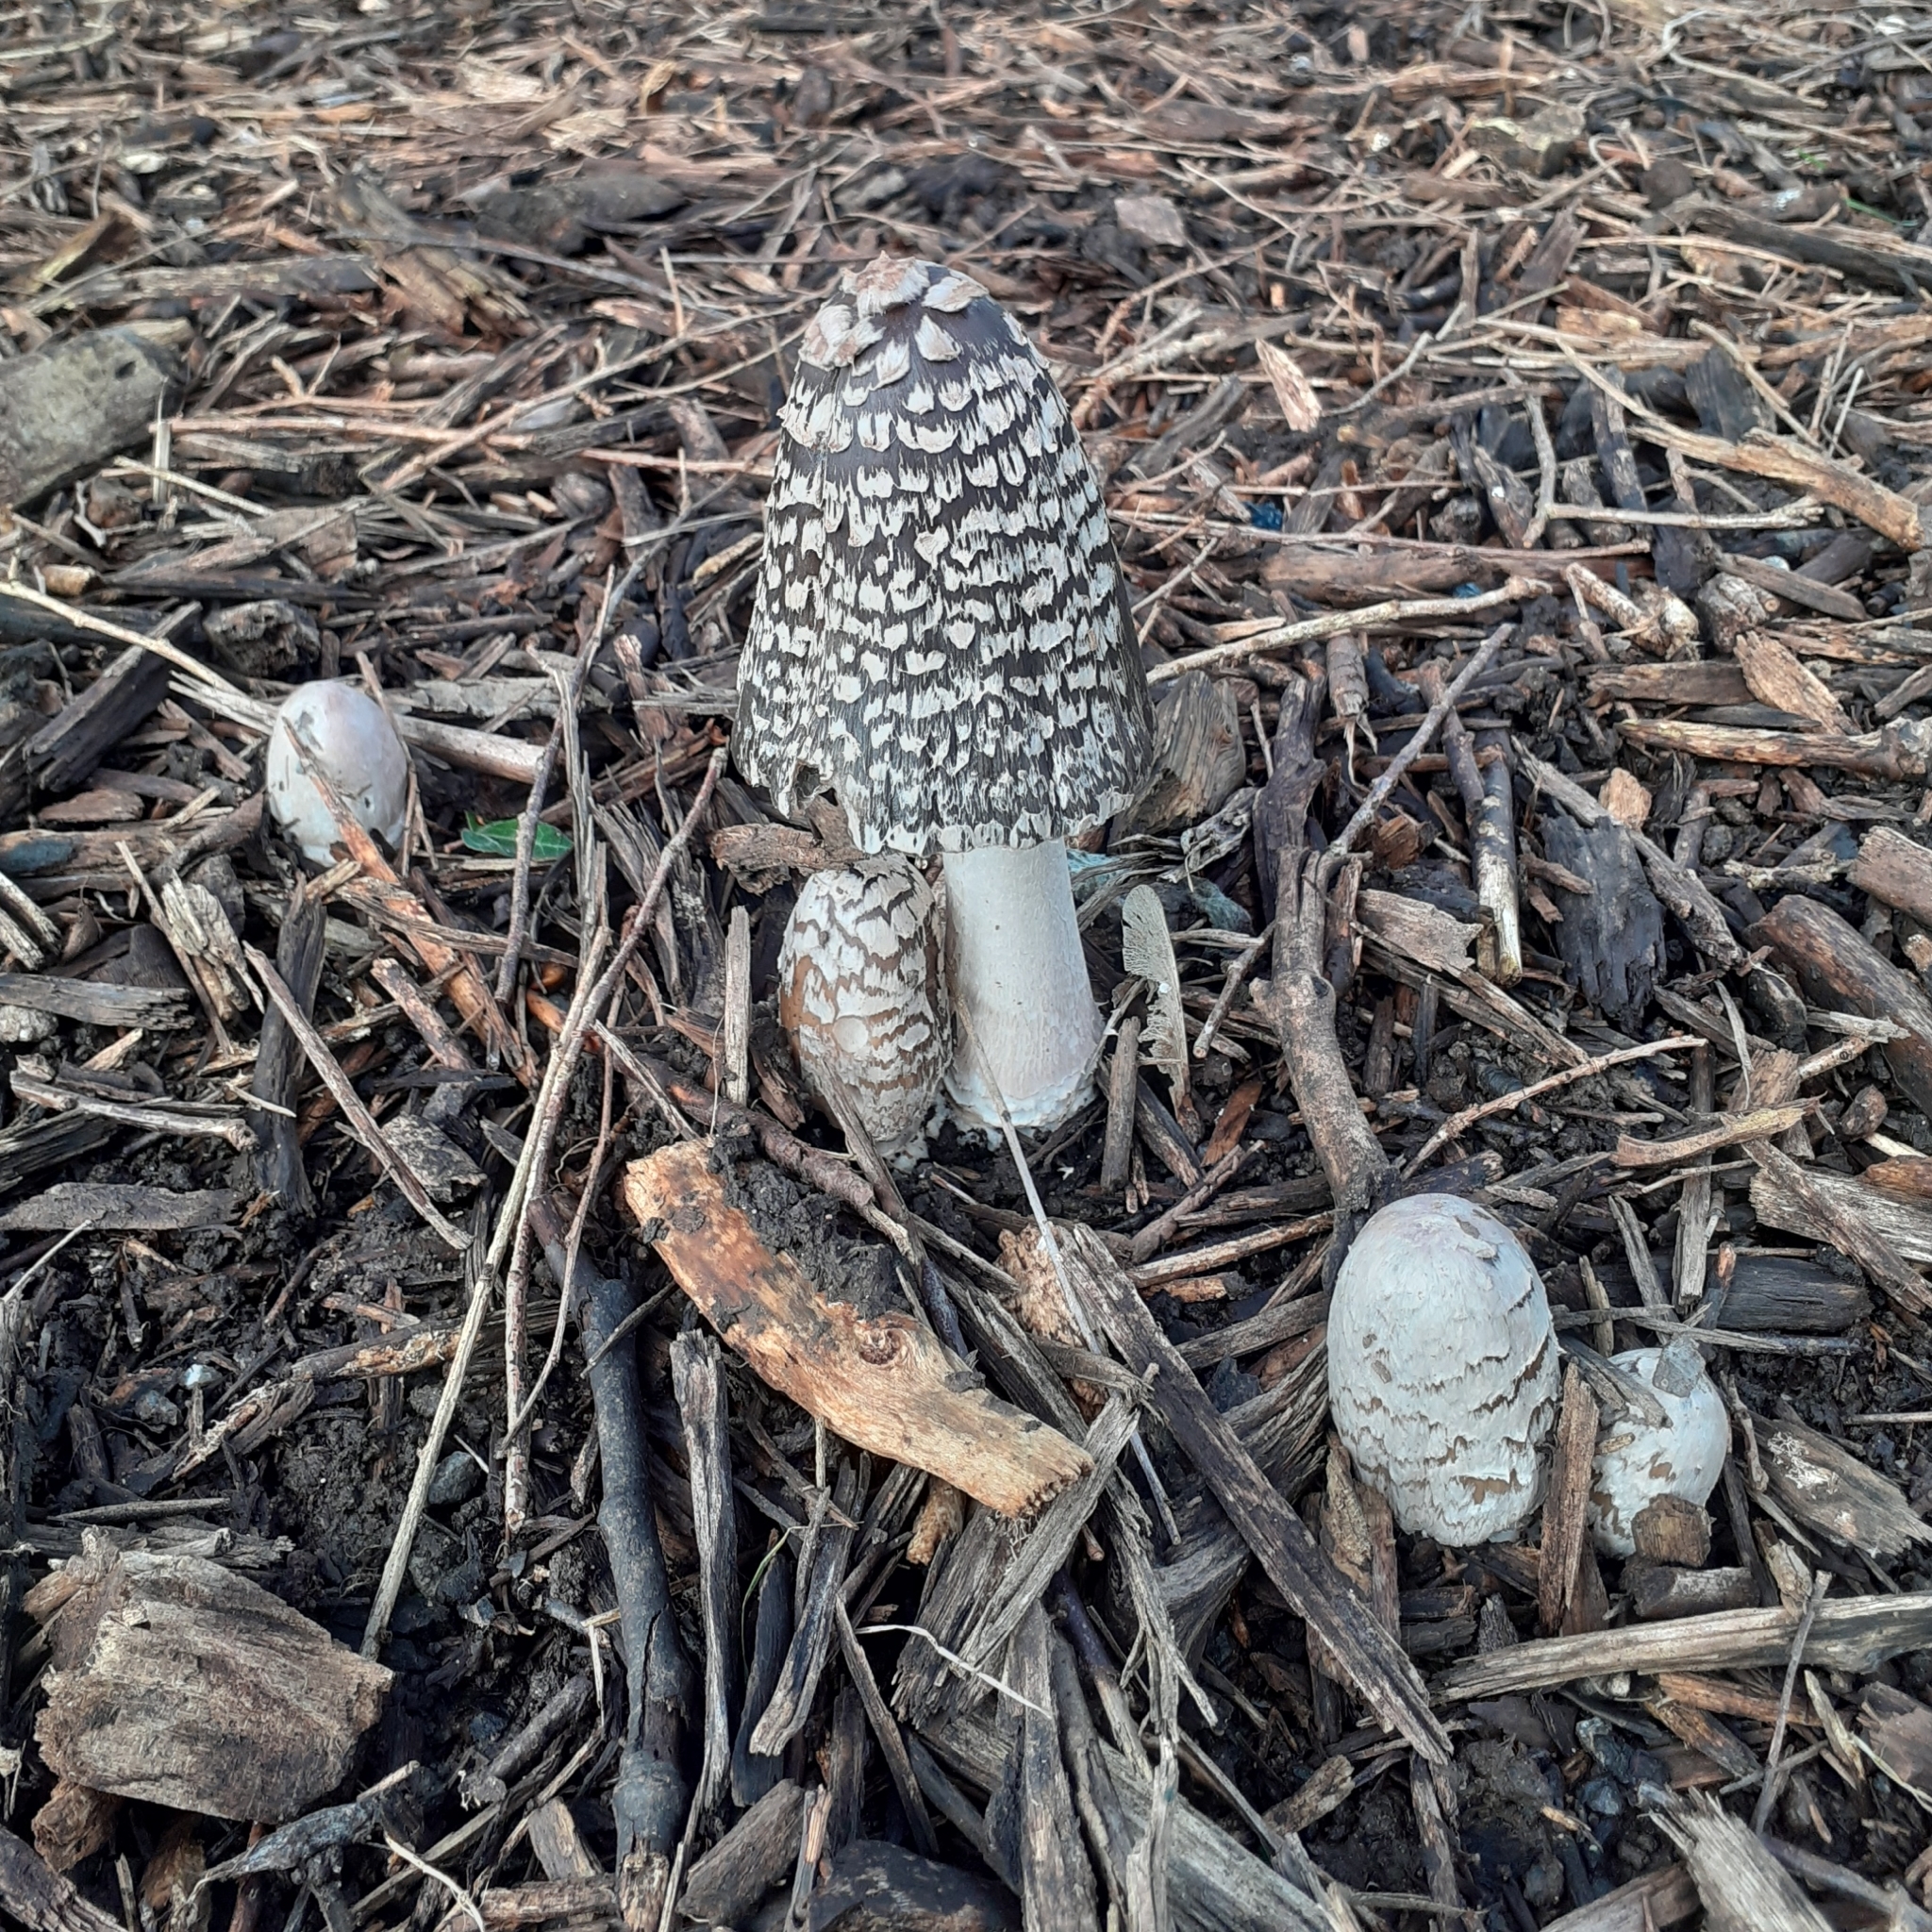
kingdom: Fungi
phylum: Basidiomycota
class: Agaricomycetes
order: Agaricales
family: Psathyrellaceae
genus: Coprinopsis
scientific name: Coprinopsis picacea
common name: Magpie inkcap
